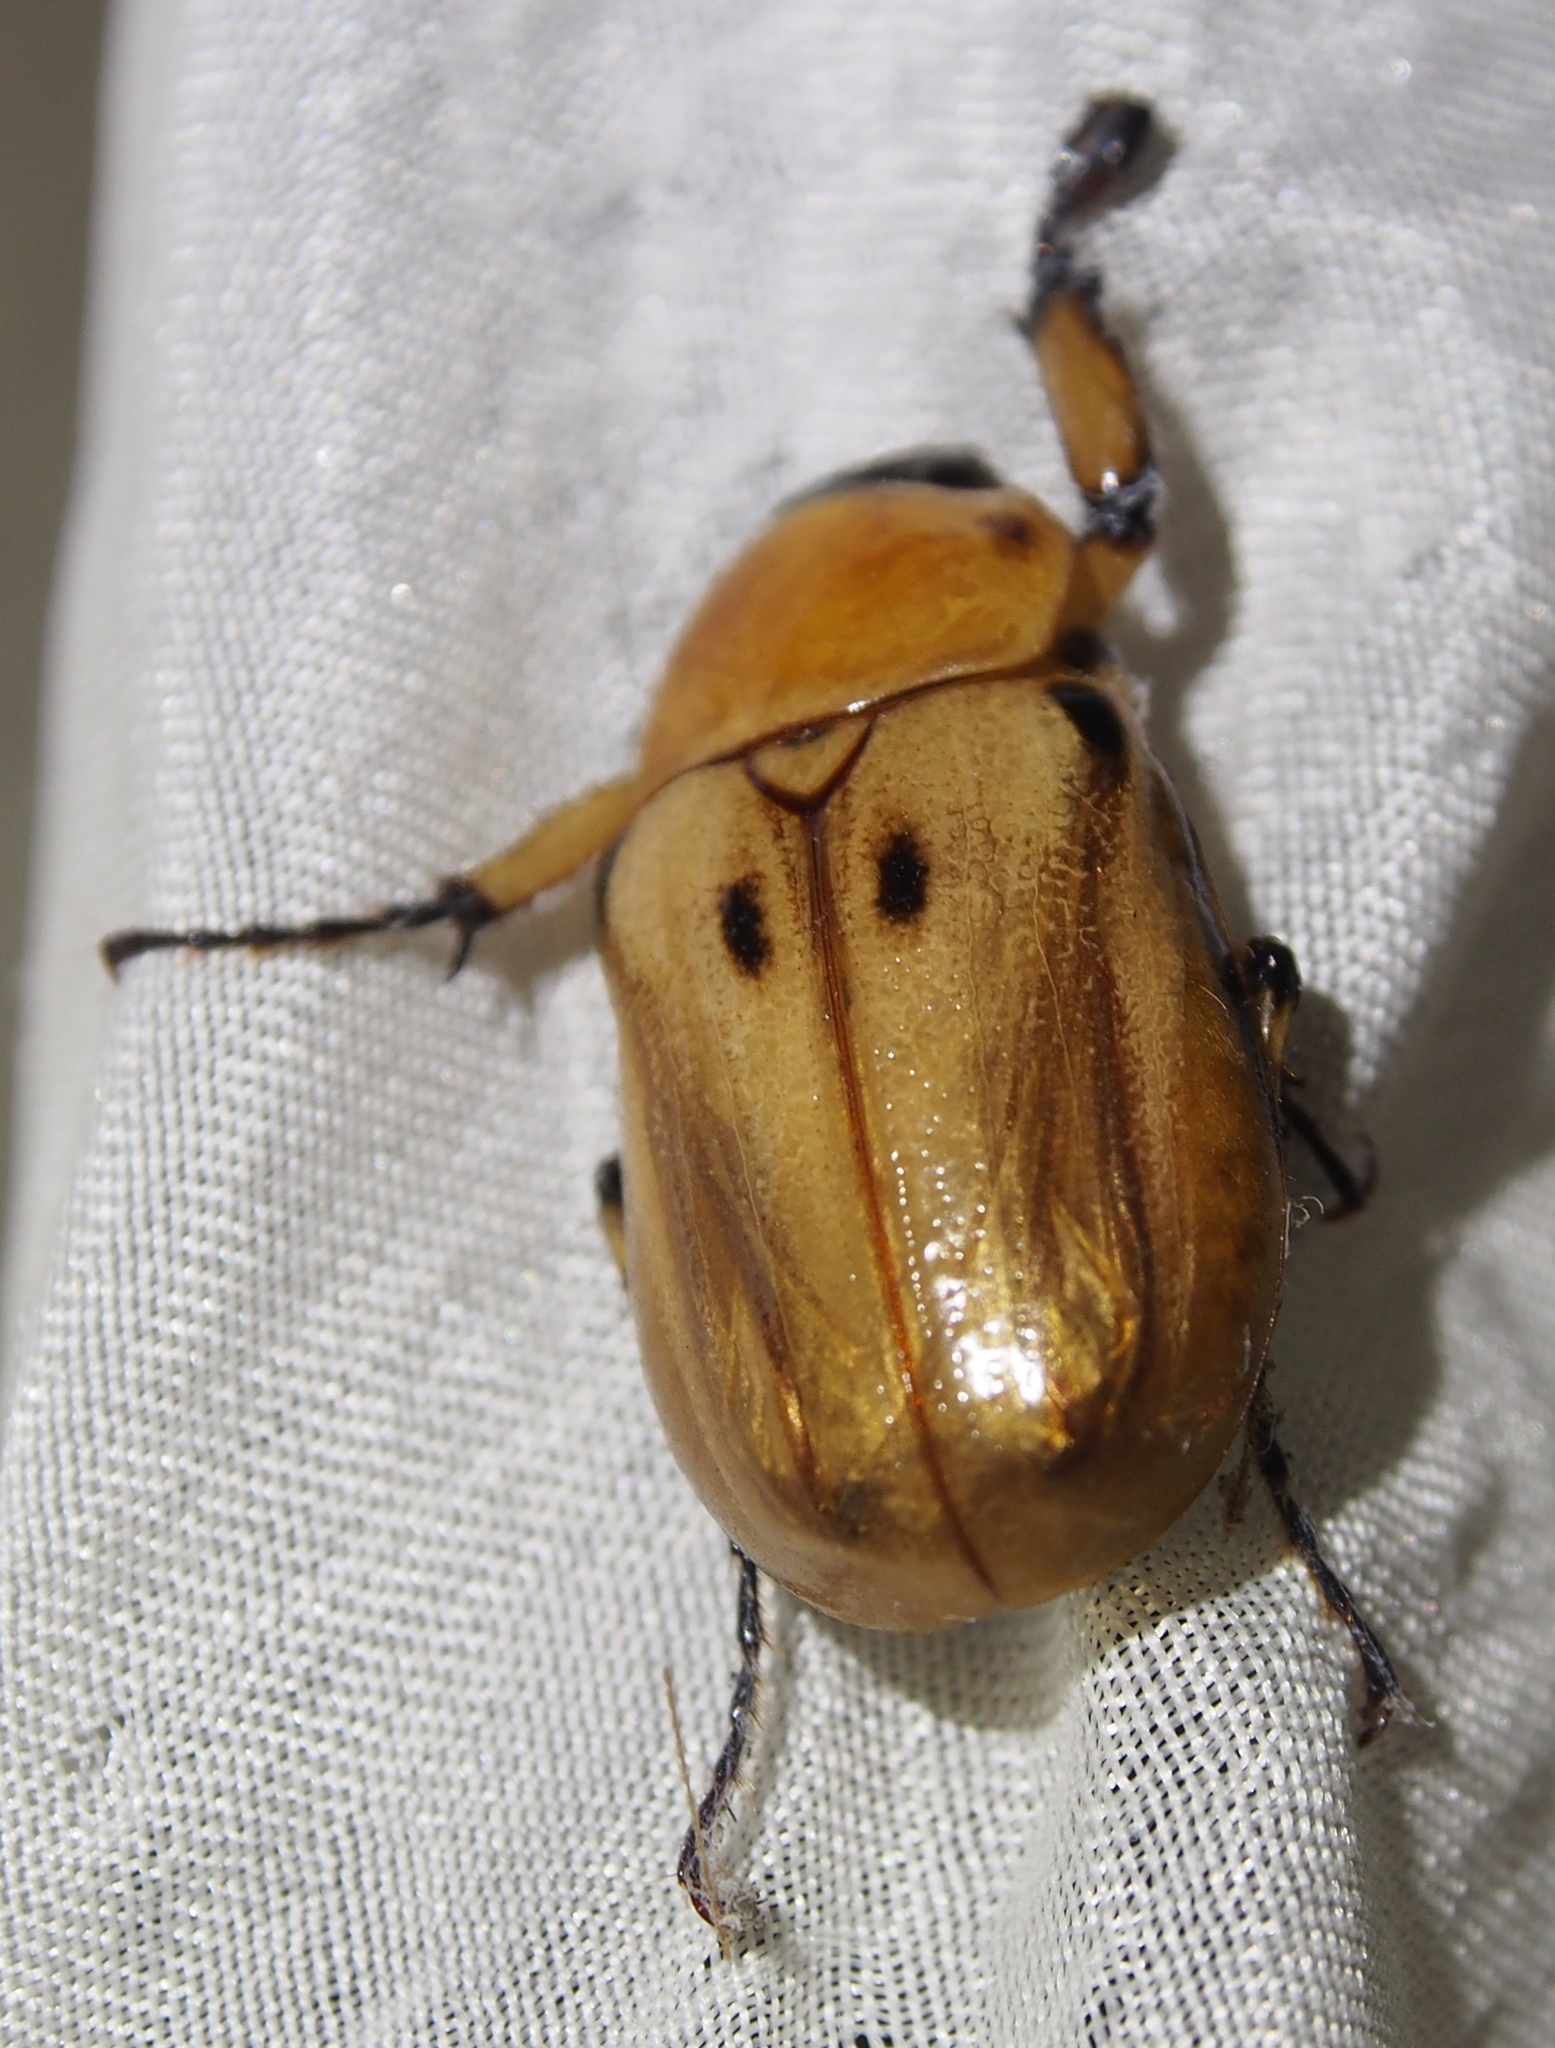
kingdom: Animalia
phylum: Arthropoda
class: Insecta
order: Coleoptera
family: Scarabaeidae
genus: Ancognatha
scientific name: Ancognatha vexans
